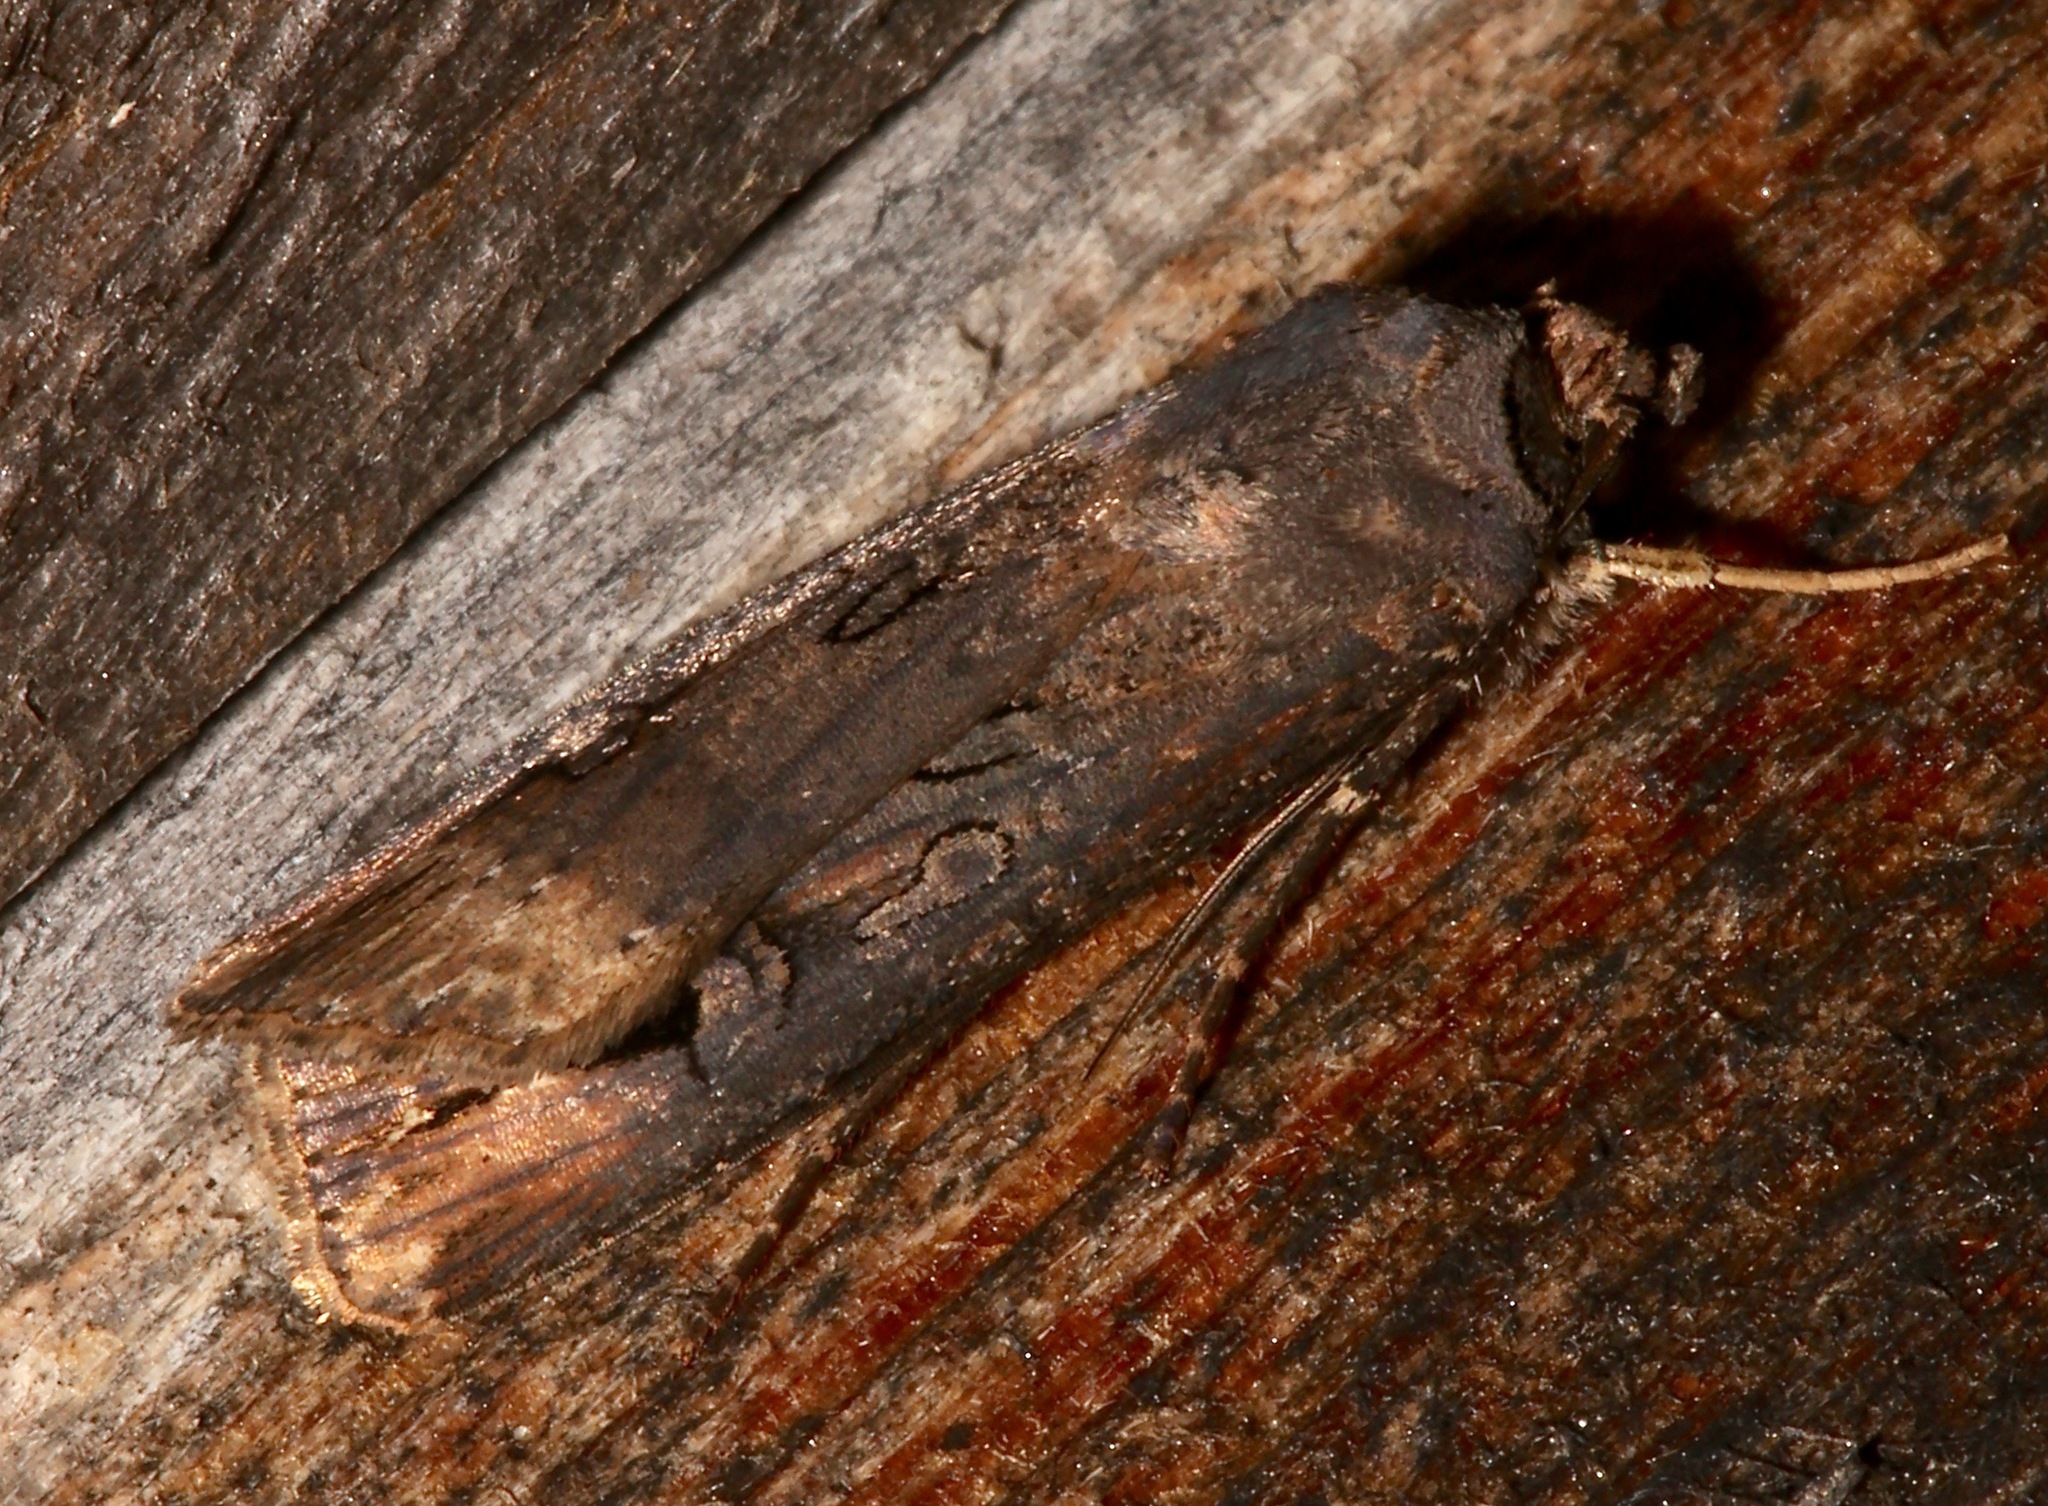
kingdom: Animalia
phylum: Arthropoda
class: Insecta
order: Lepidoptera
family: Noctuidae
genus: Agrotis
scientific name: Agrotis ipsilon
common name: Dark sword-grass
